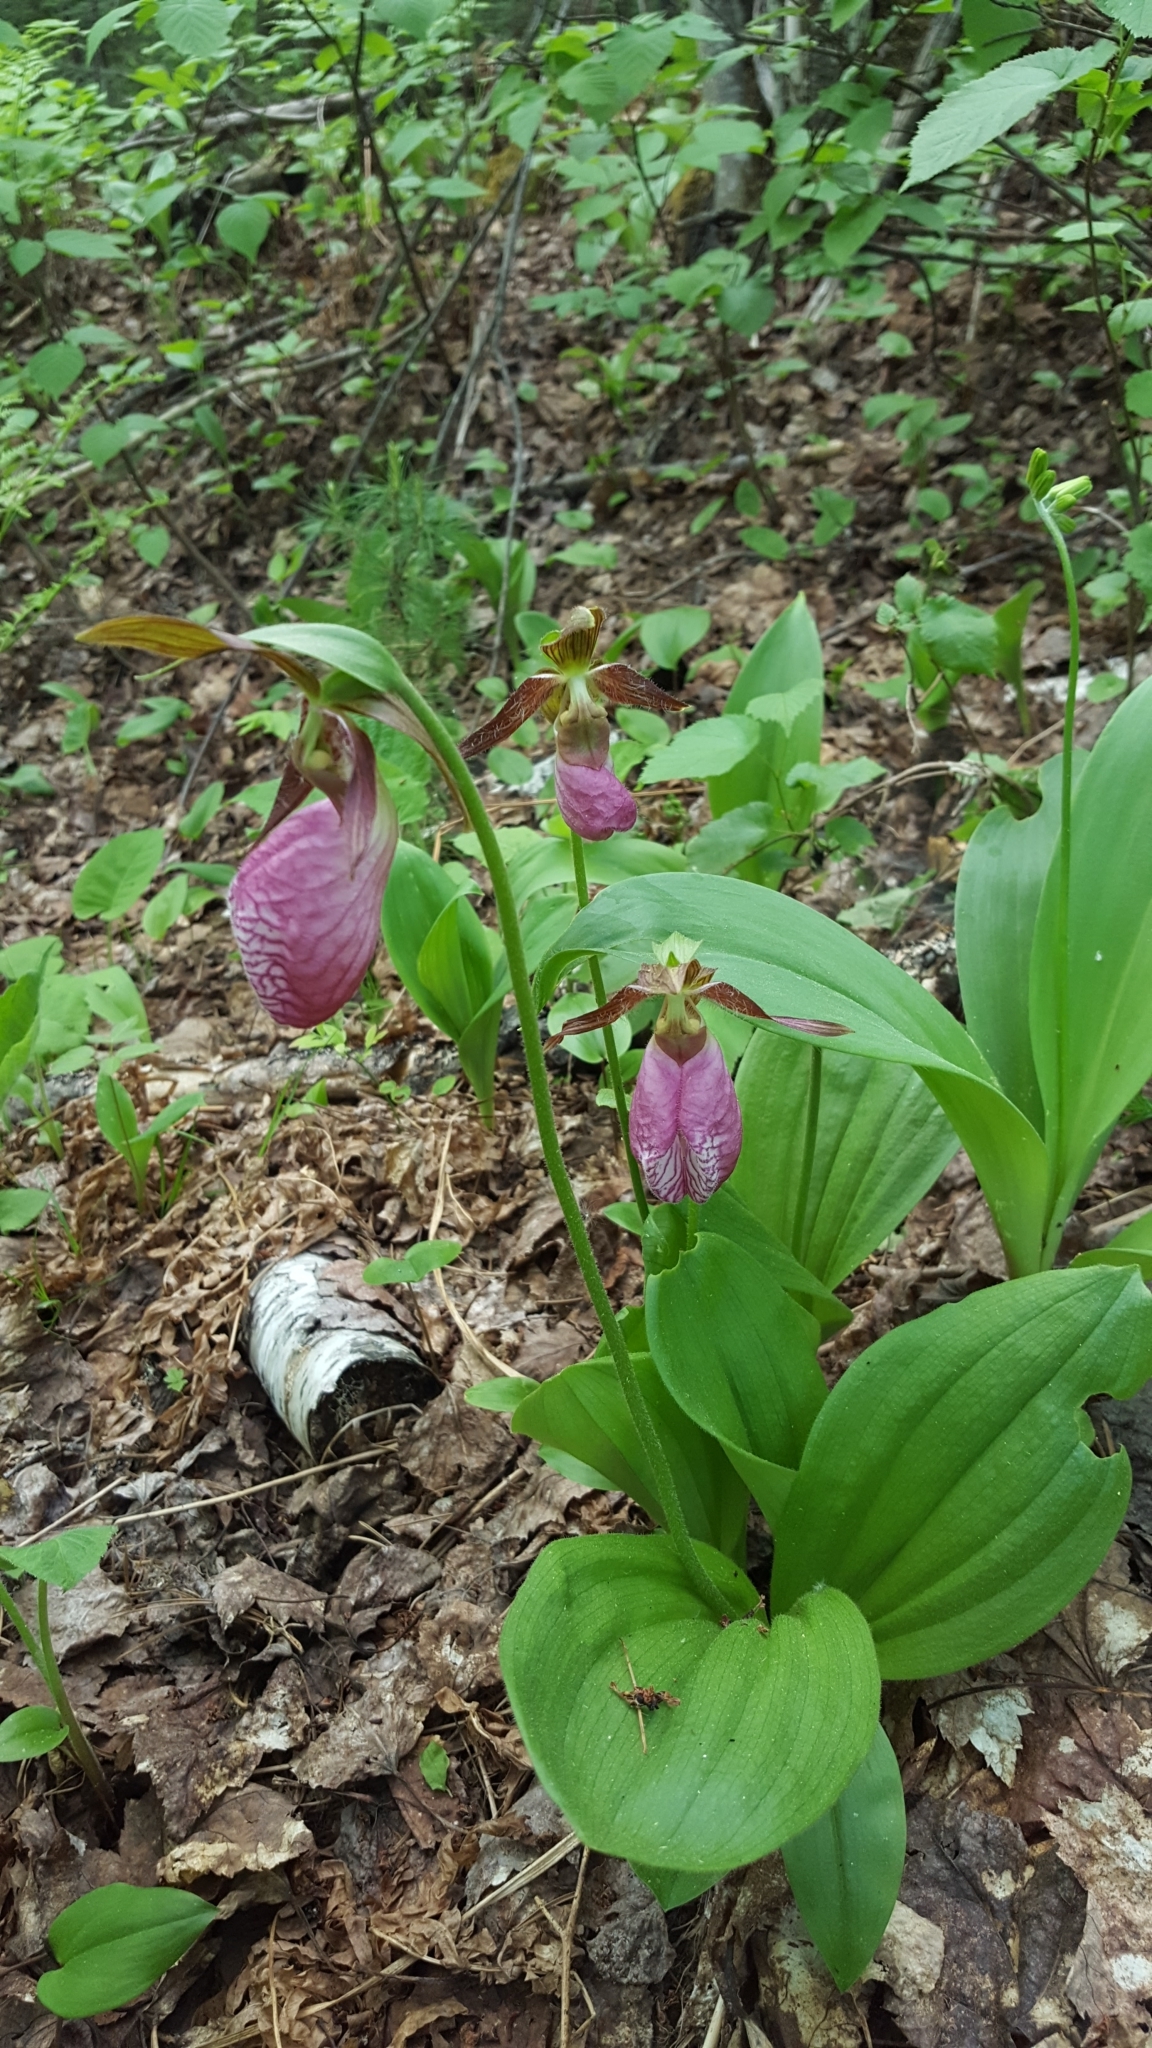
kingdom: Plantae
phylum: Tracheophyta
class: Liliopsida
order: Asparagales
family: Orchidaceae
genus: Cypripedium
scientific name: Cypripedium acaule
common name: Pink lady's-slipper
